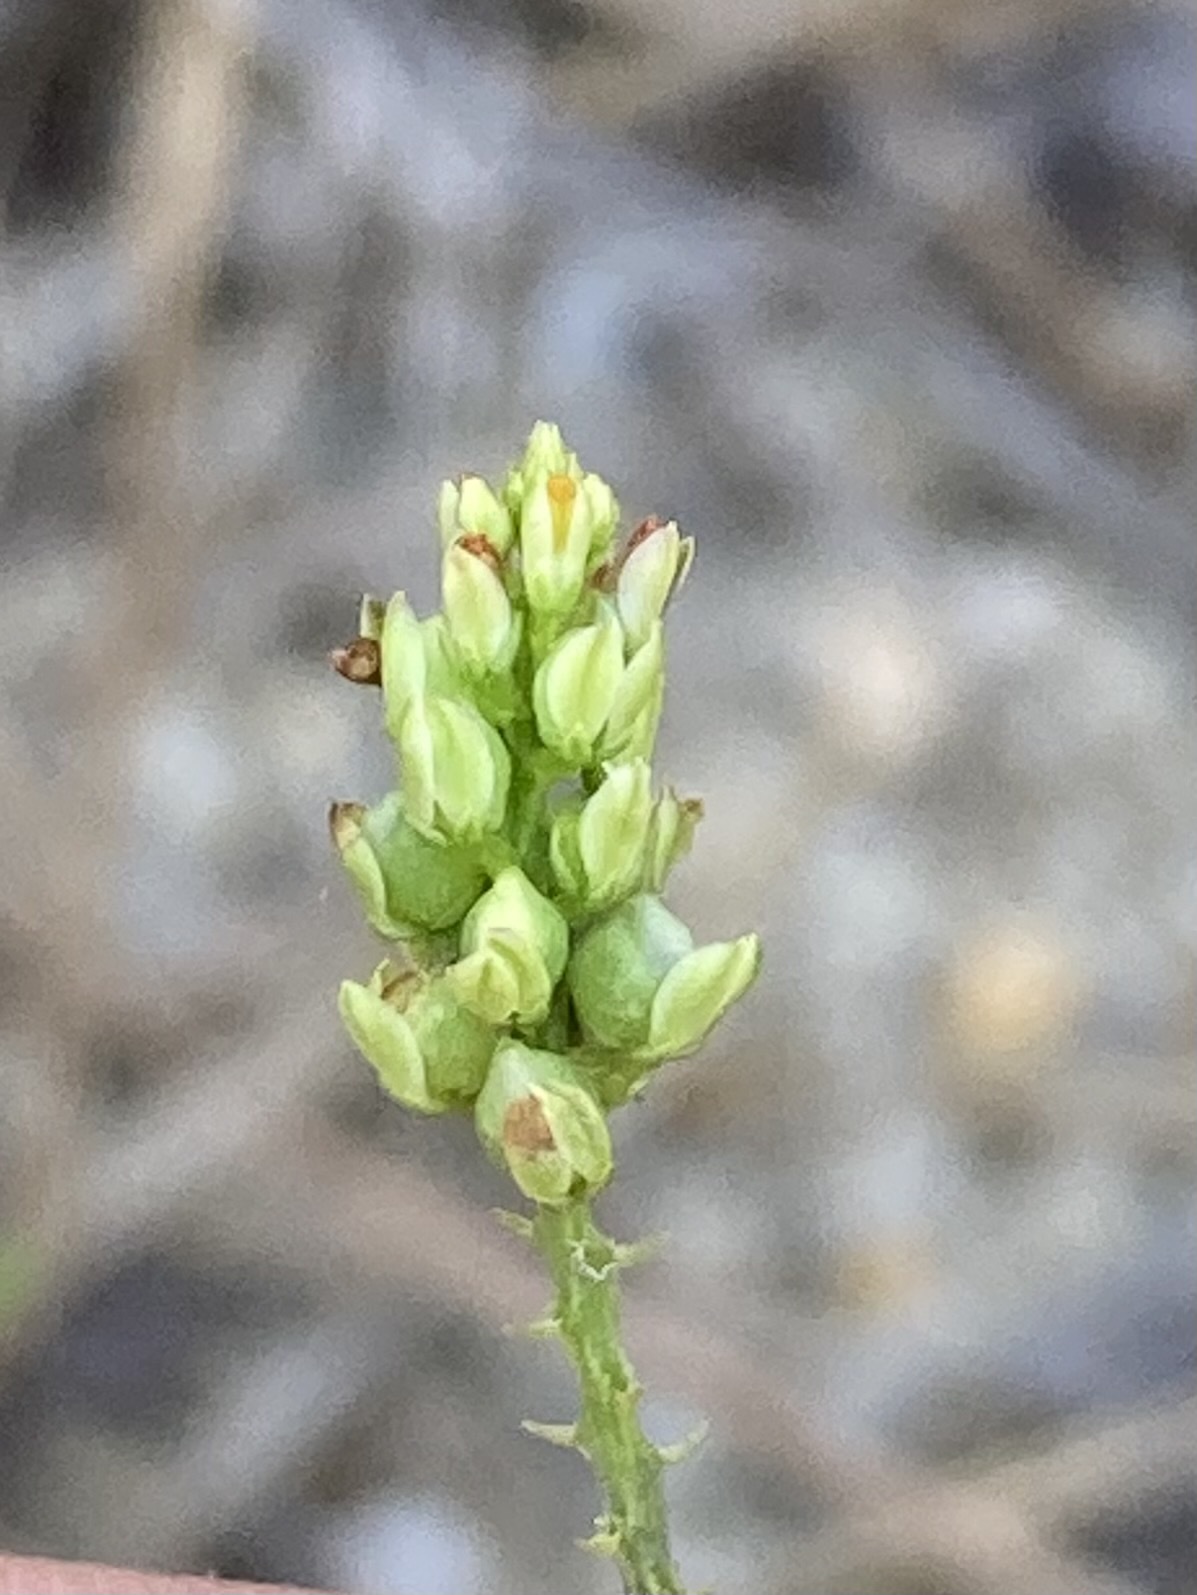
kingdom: Plantae
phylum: Tracheophyta
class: Magnoliopsida
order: Fabales
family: Polygalaceae
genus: Polygala
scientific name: Polygala nuttallii
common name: Nuttall's milkwort
